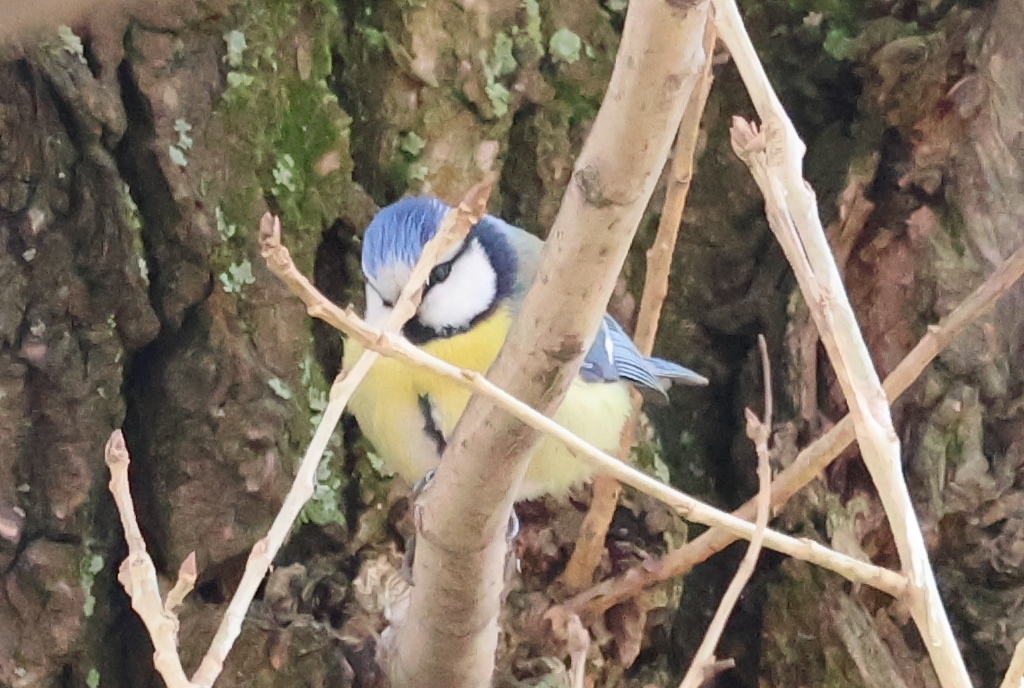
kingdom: Animalia
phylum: Chordata
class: Aves
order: Passeriformes
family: Paridae
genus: Cyanistes
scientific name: Cyanistes caeruleus
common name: Eurasian blue tit
